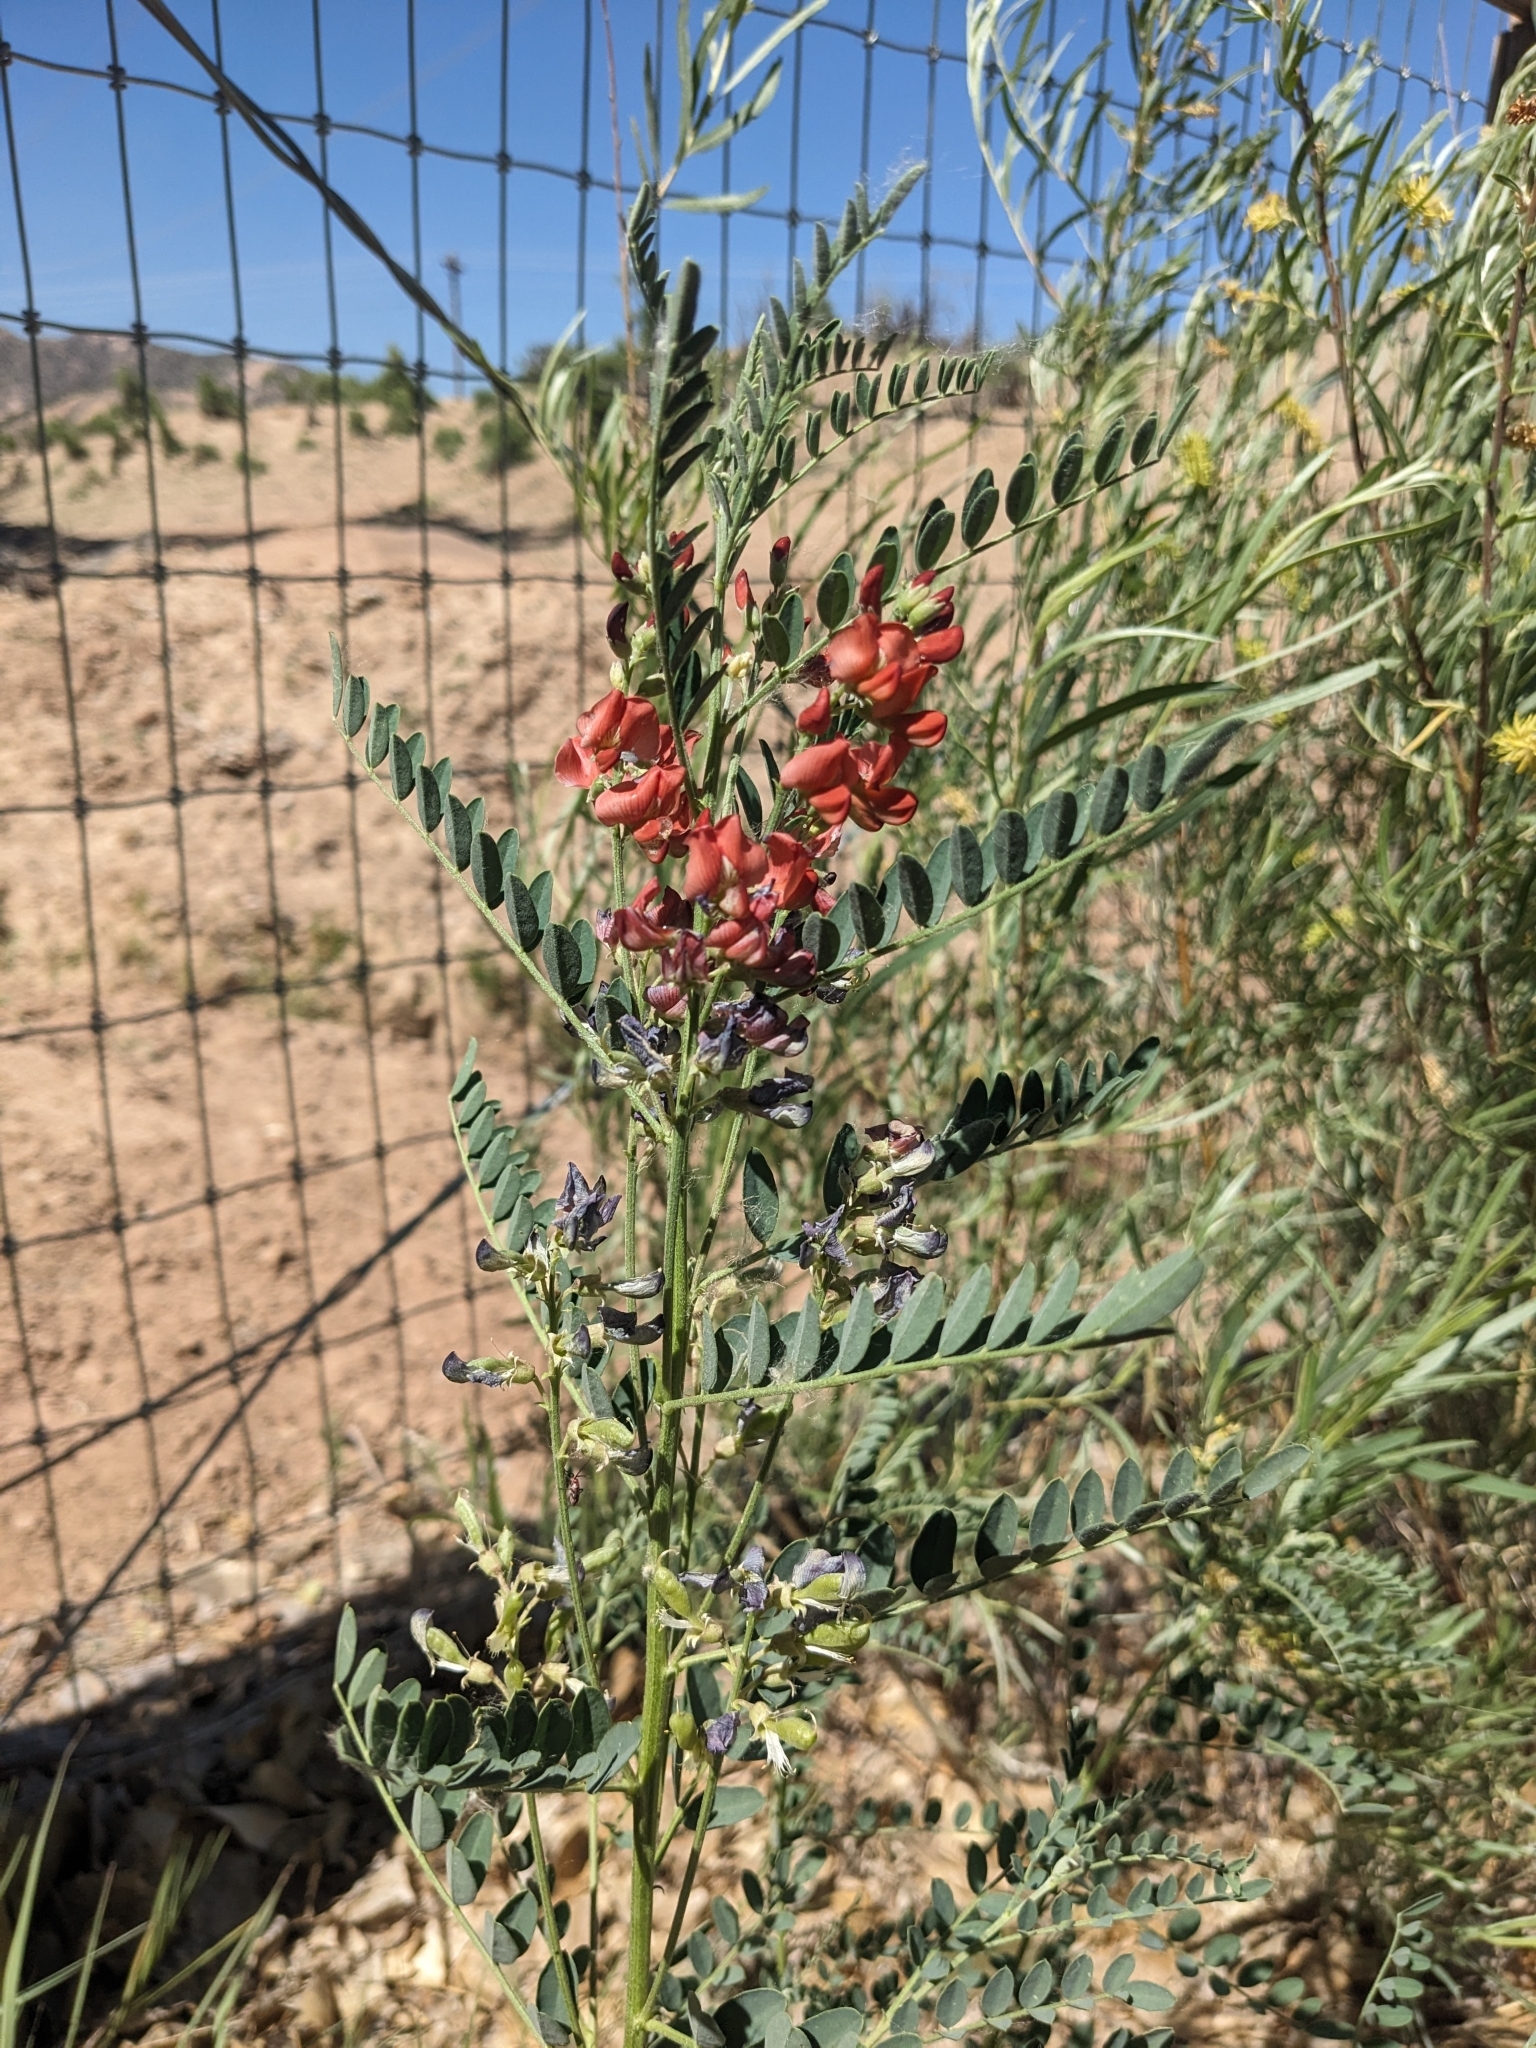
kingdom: Plantae
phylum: Tracheophyta
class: Magnoliopsida
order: Fabales
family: Fabaceae
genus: Sphaerophysa
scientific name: Sphaerophysa salsula
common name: Alkali swainsonpea
